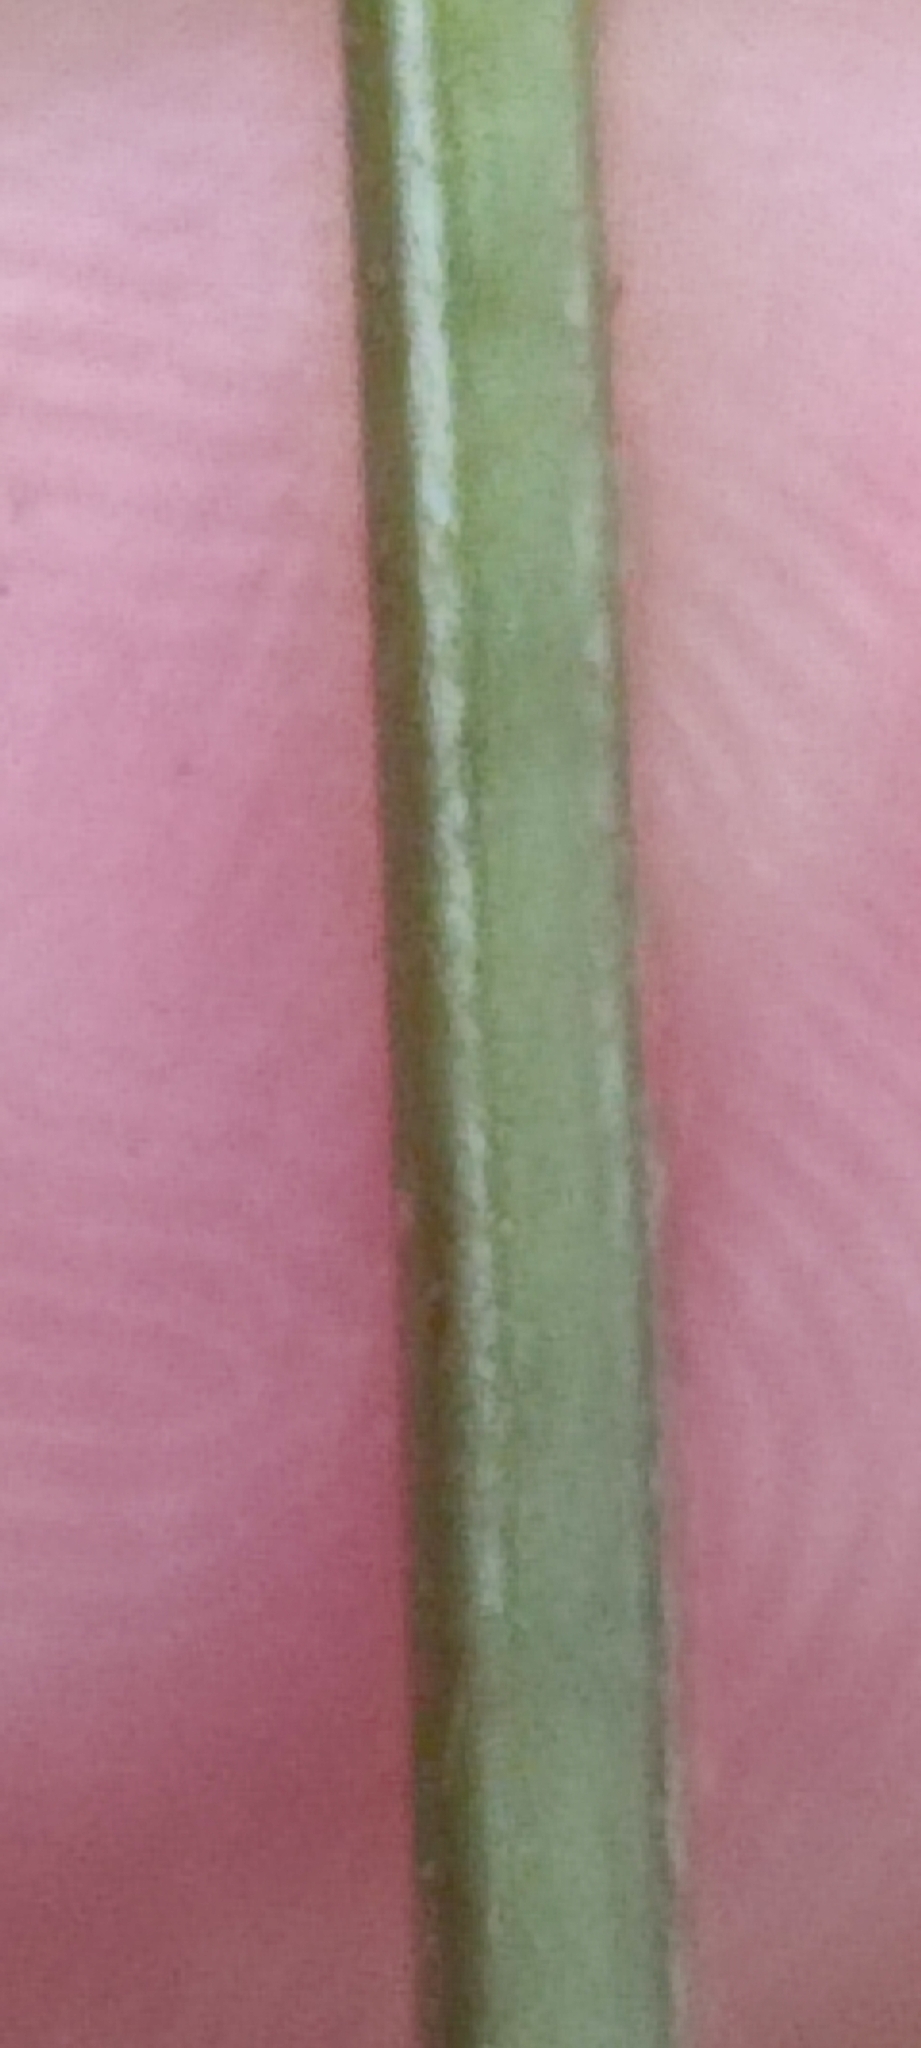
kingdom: Plantae
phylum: Tracheophyta
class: Polypodiopsida
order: Polypodiales
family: Thelypteridaceae
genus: Christella
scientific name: Christella dentata
